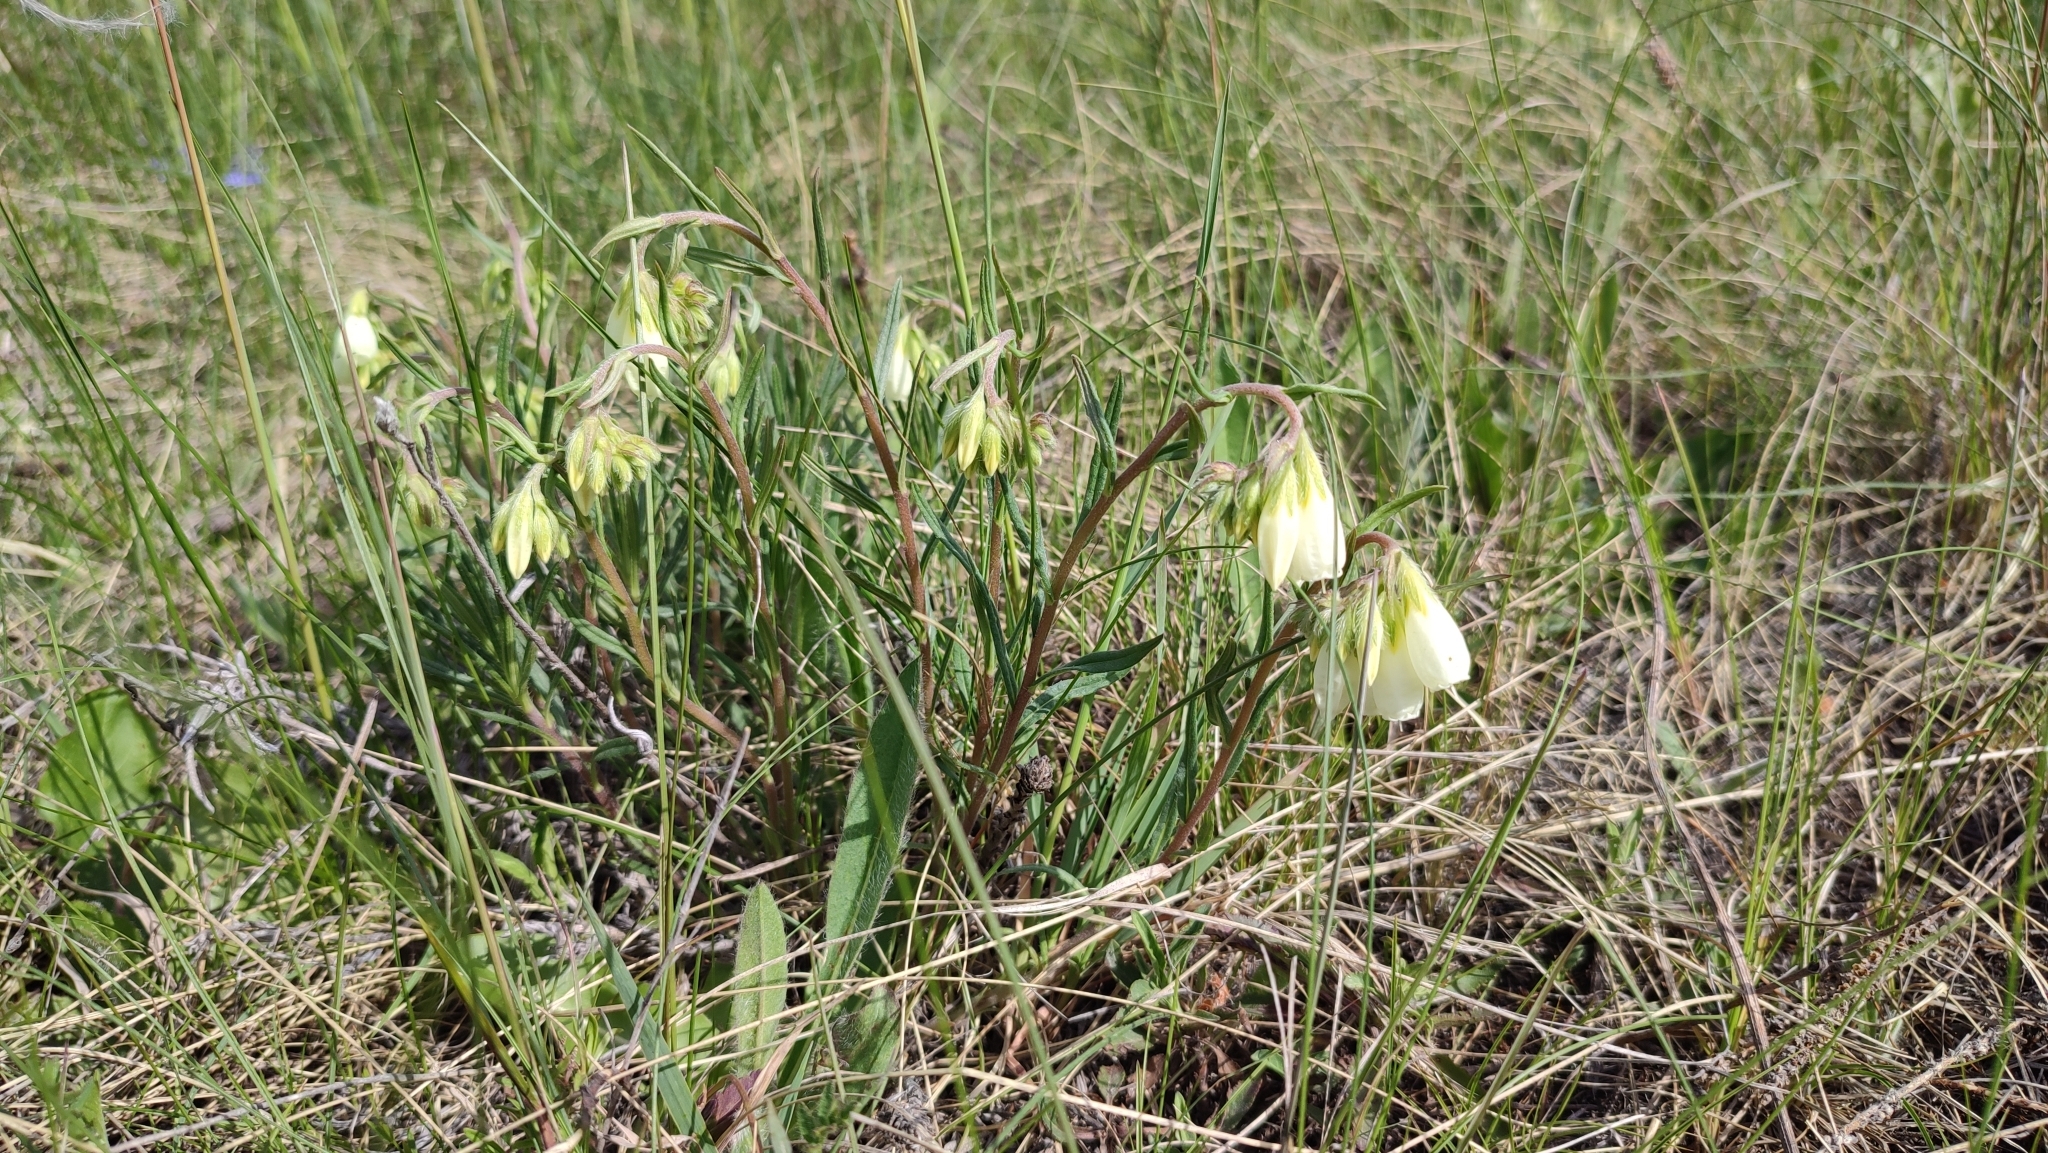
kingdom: Plantae
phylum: Tracheophyta
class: Magnoliopsida
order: Boraginales
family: Boraginaceae
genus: Onosma
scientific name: Onosma simplicissima
